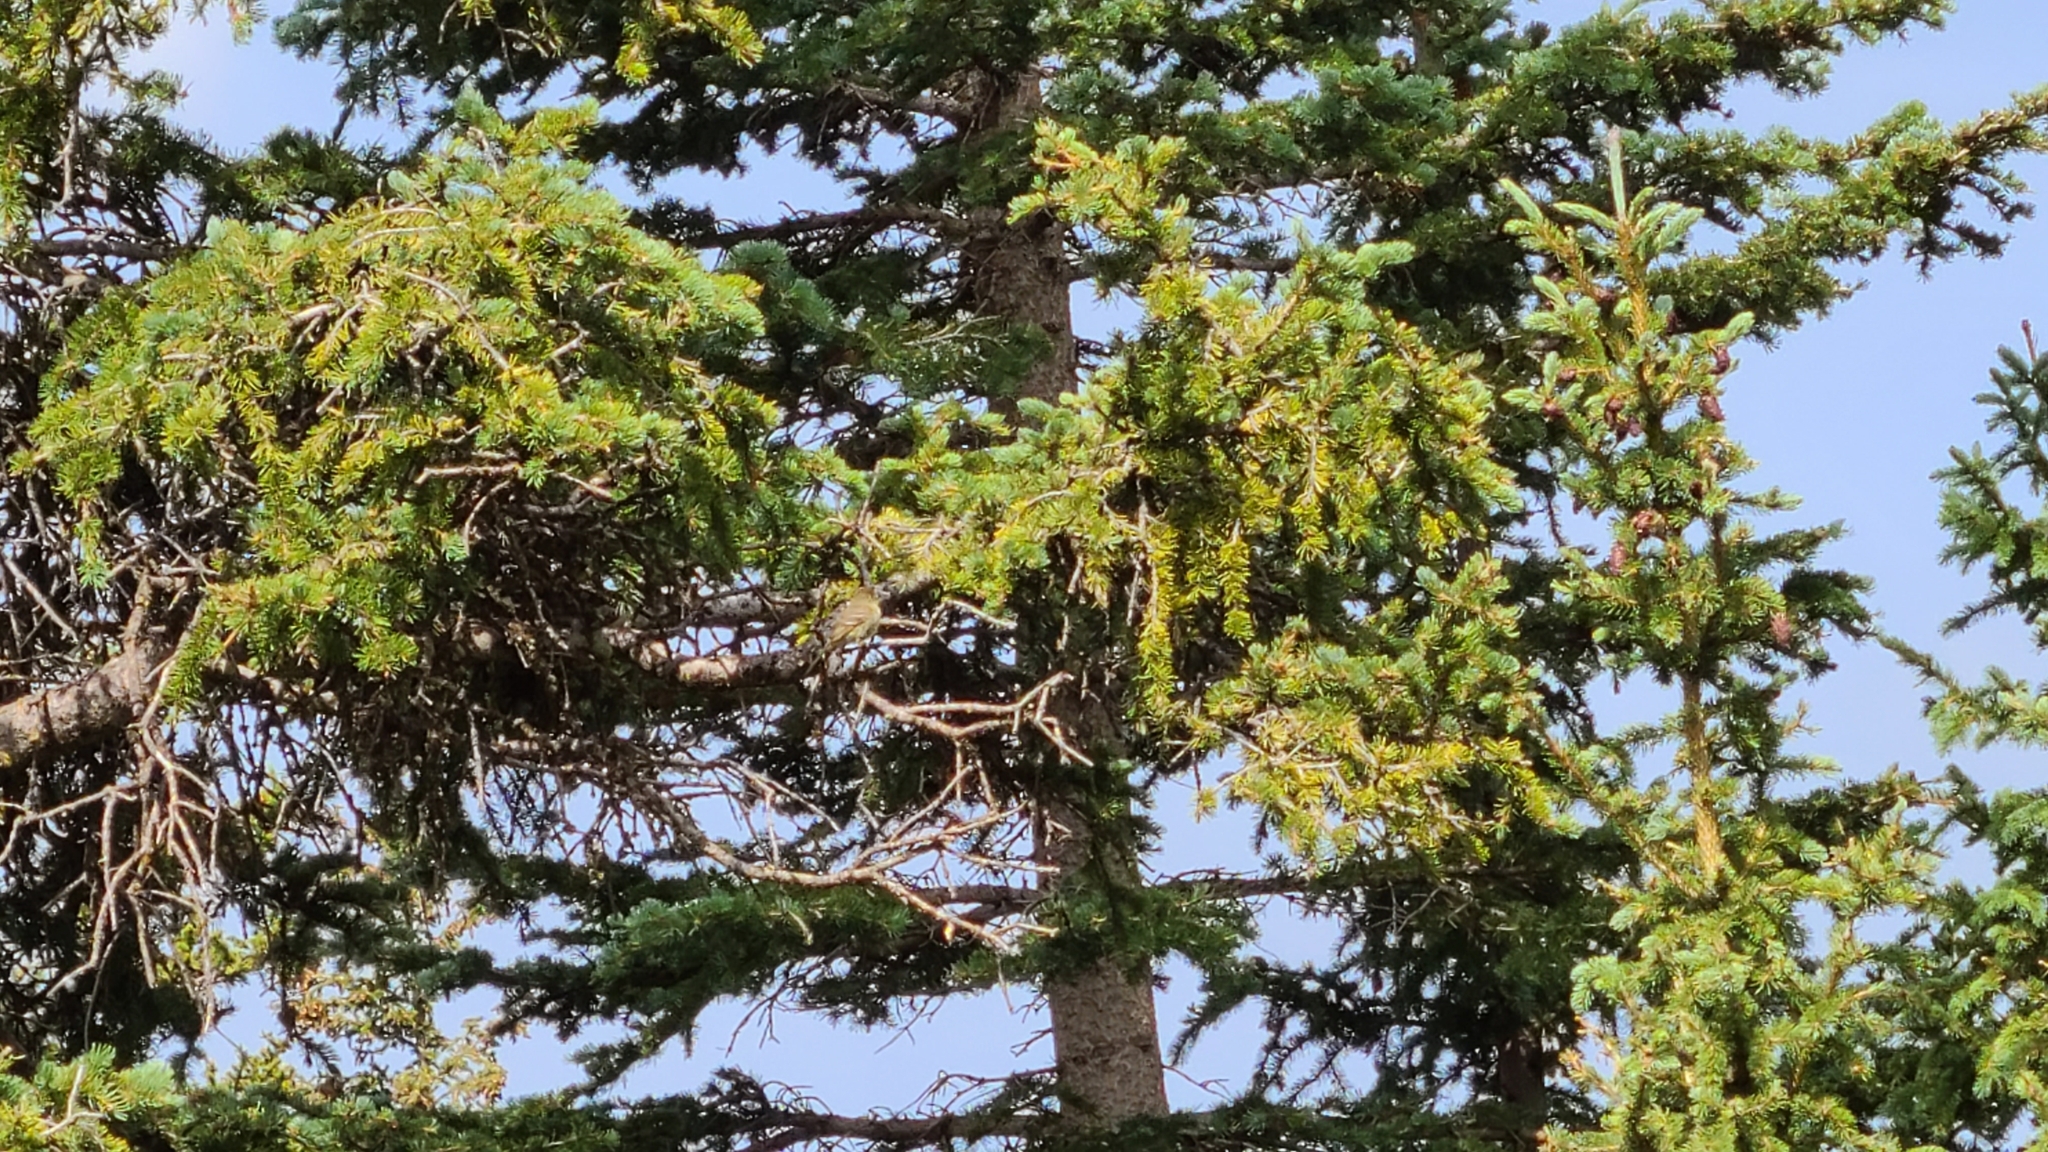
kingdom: Animalia
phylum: Chordata
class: Aves
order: Passeriformes
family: Tyrannidae
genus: Empidonax
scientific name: Empidonax difficilis
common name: Pacific-slope flycatcher
